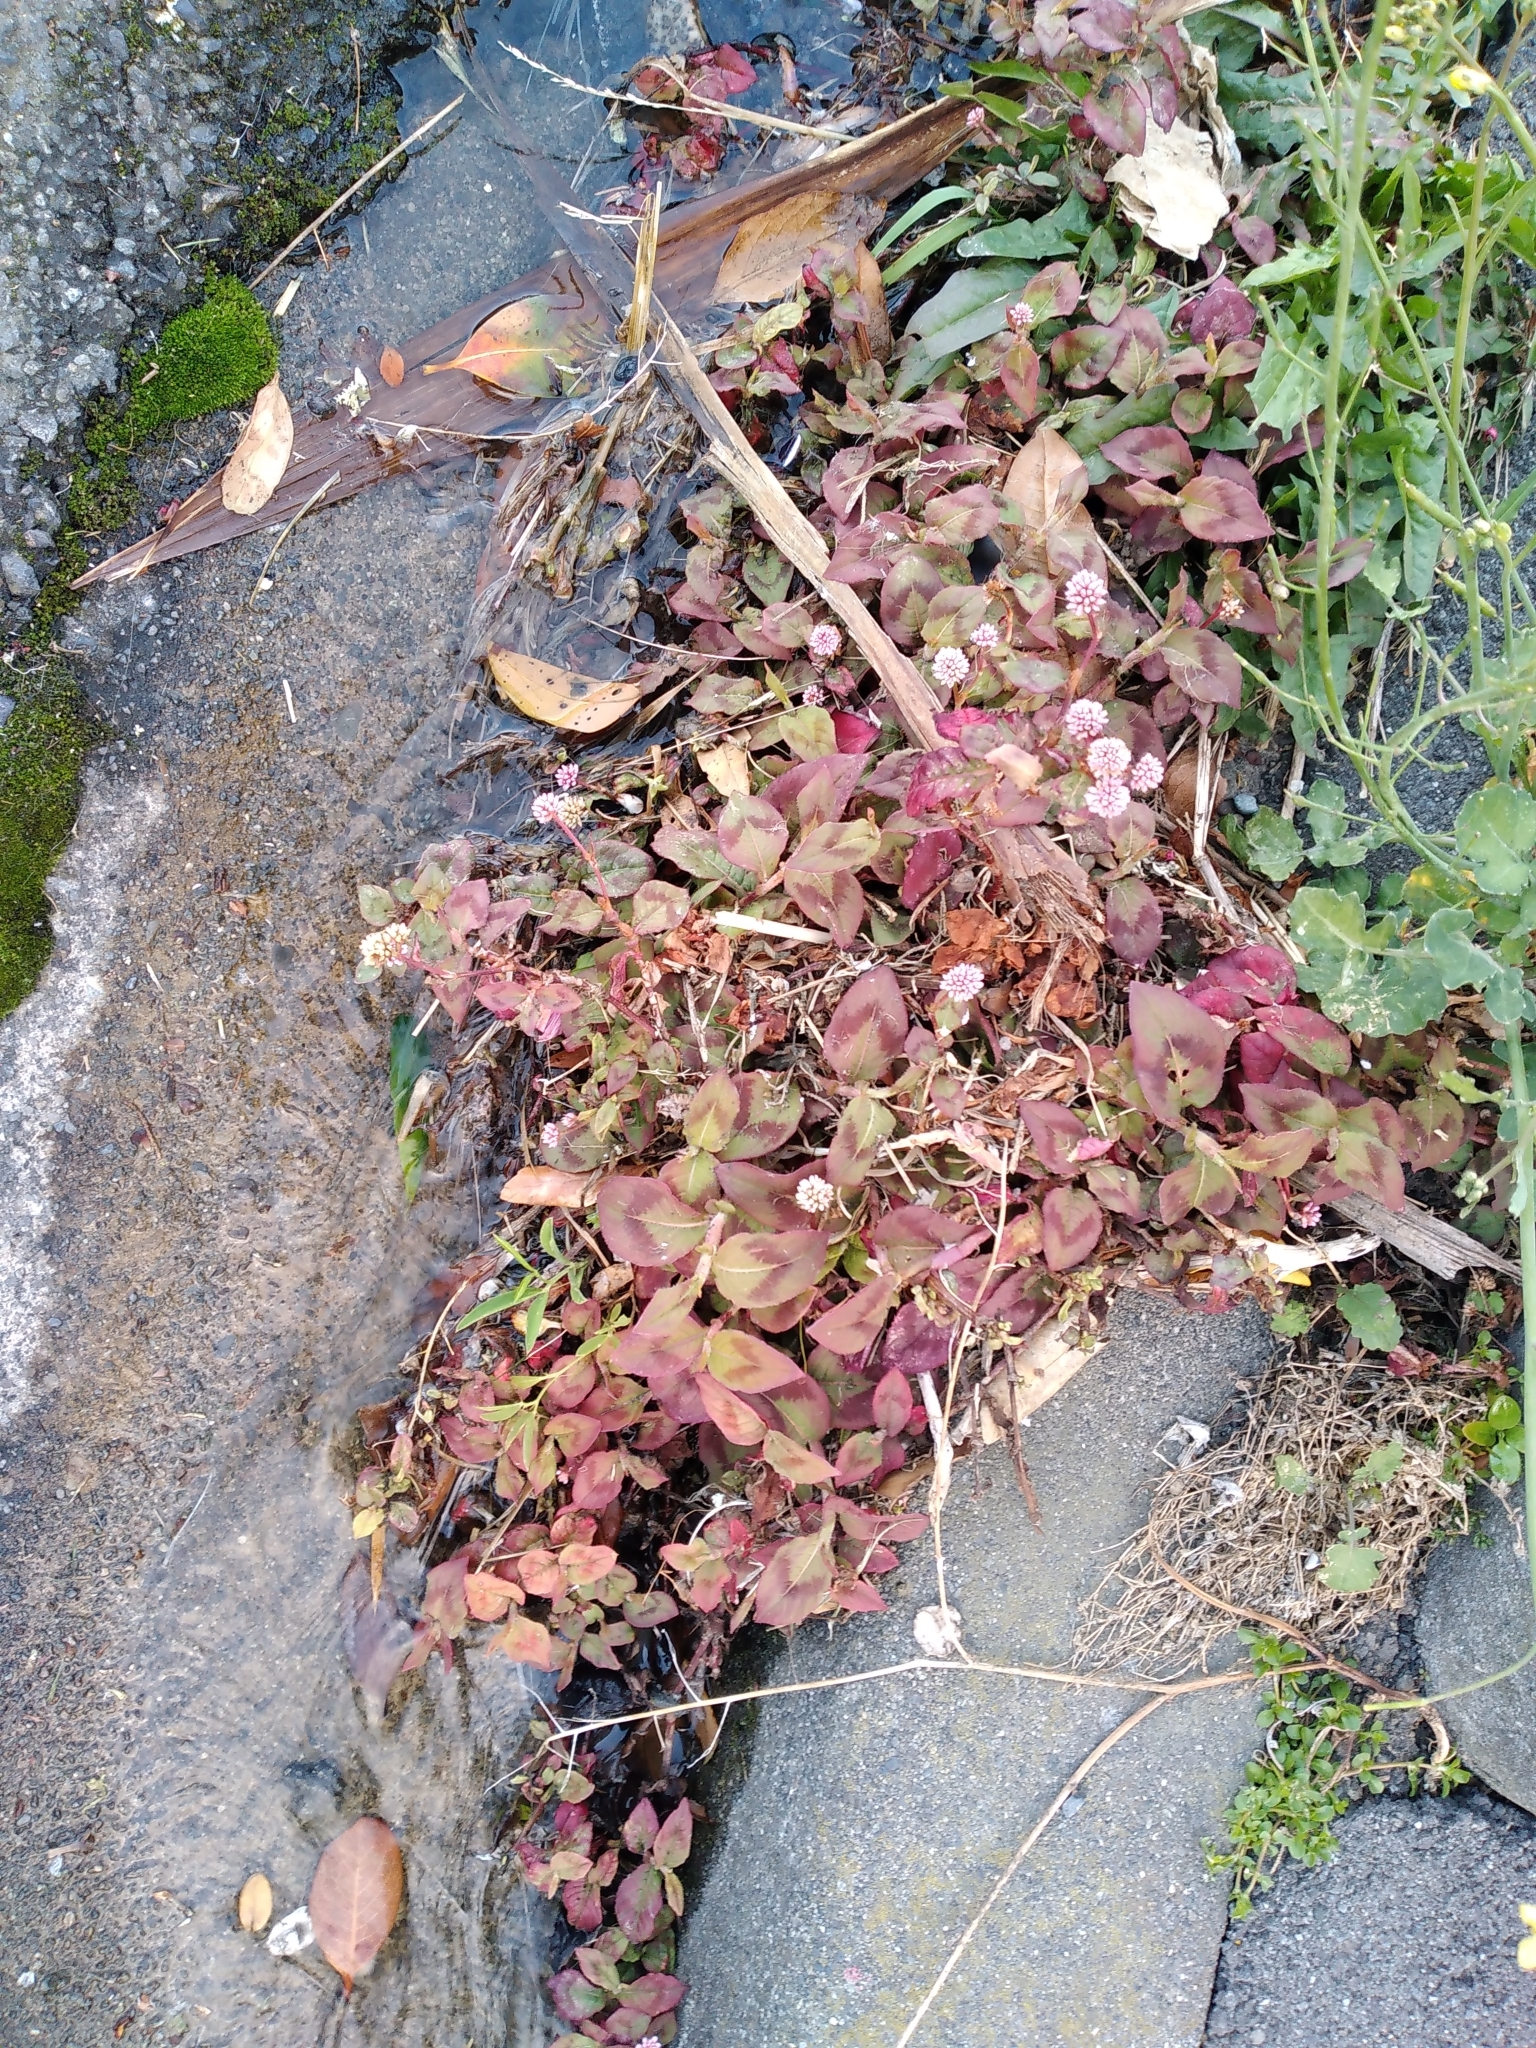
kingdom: Plantae
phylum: Tracheophyta
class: Magnoliopsida
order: Caryophyllales
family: Polygonaceae
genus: Persicaria
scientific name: Persicaria capitata
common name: Pinkhead smartweed
